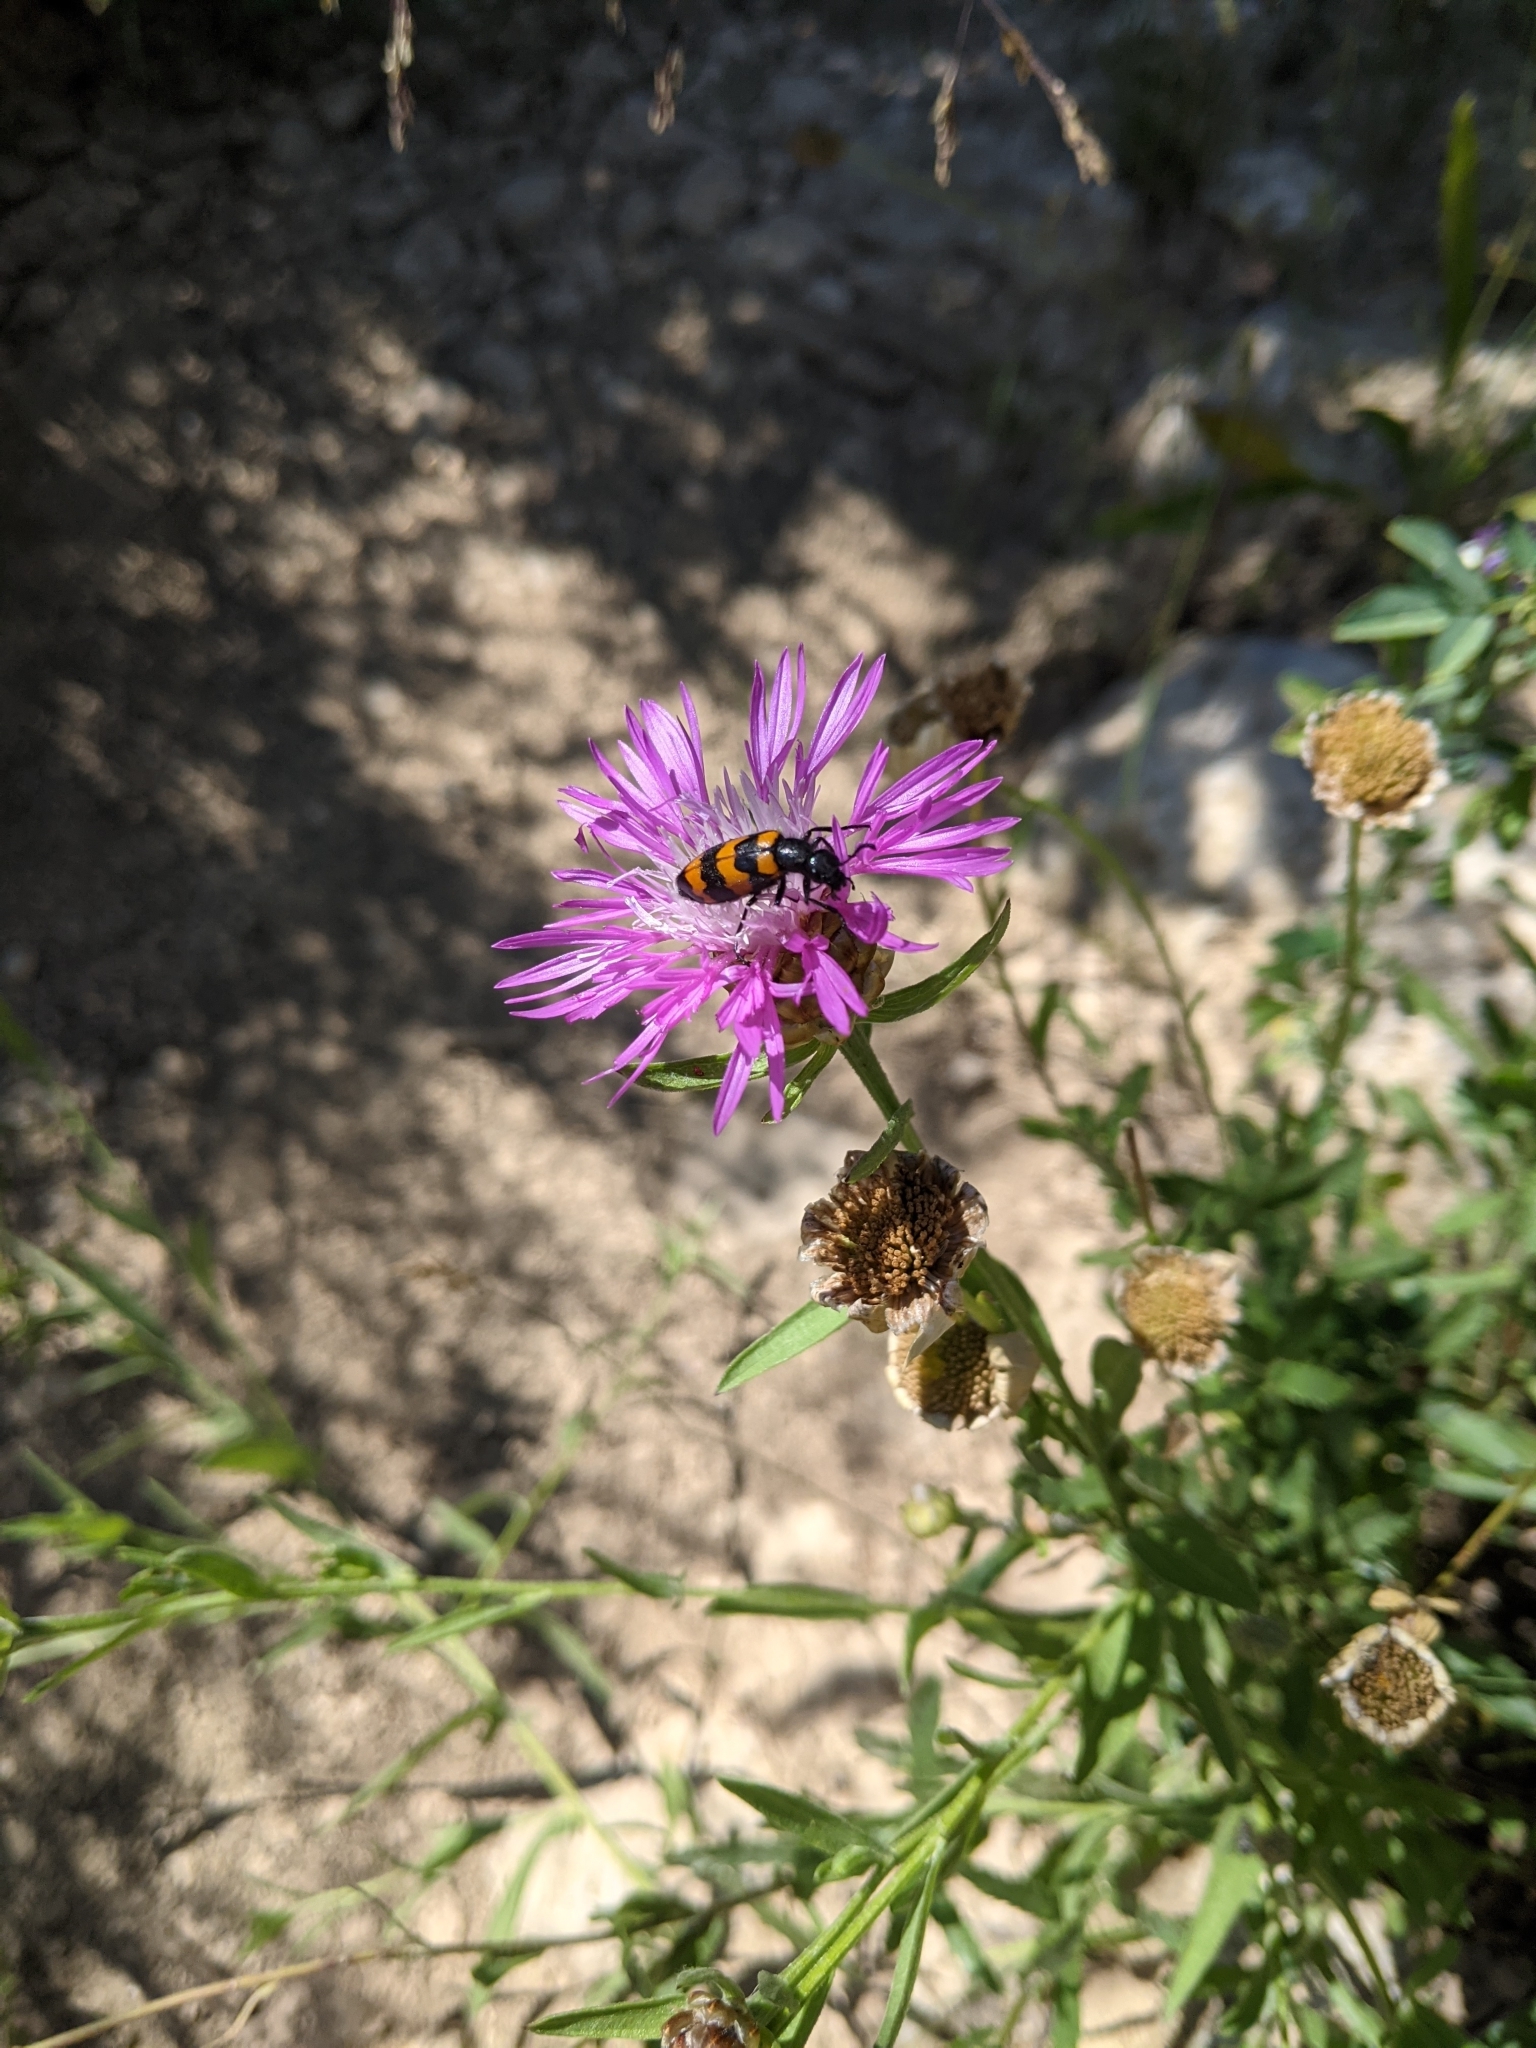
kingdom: Animalia
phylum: Arthropoda
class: Insecta
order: Coleoptera
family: Meloidae
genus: Mylabris
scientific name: Mylabris variabilis
